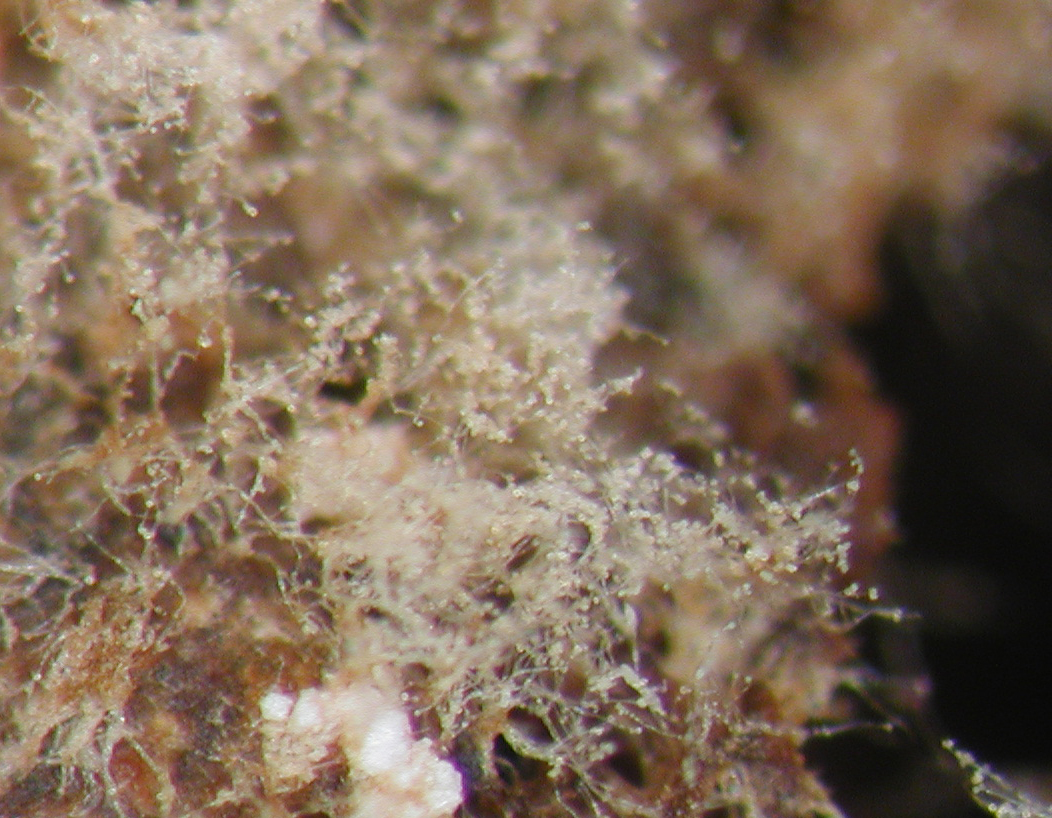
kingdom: Fungi
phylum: Ascomycota
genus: Rhinotrichella
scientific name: Rhinotrichella globulifera
